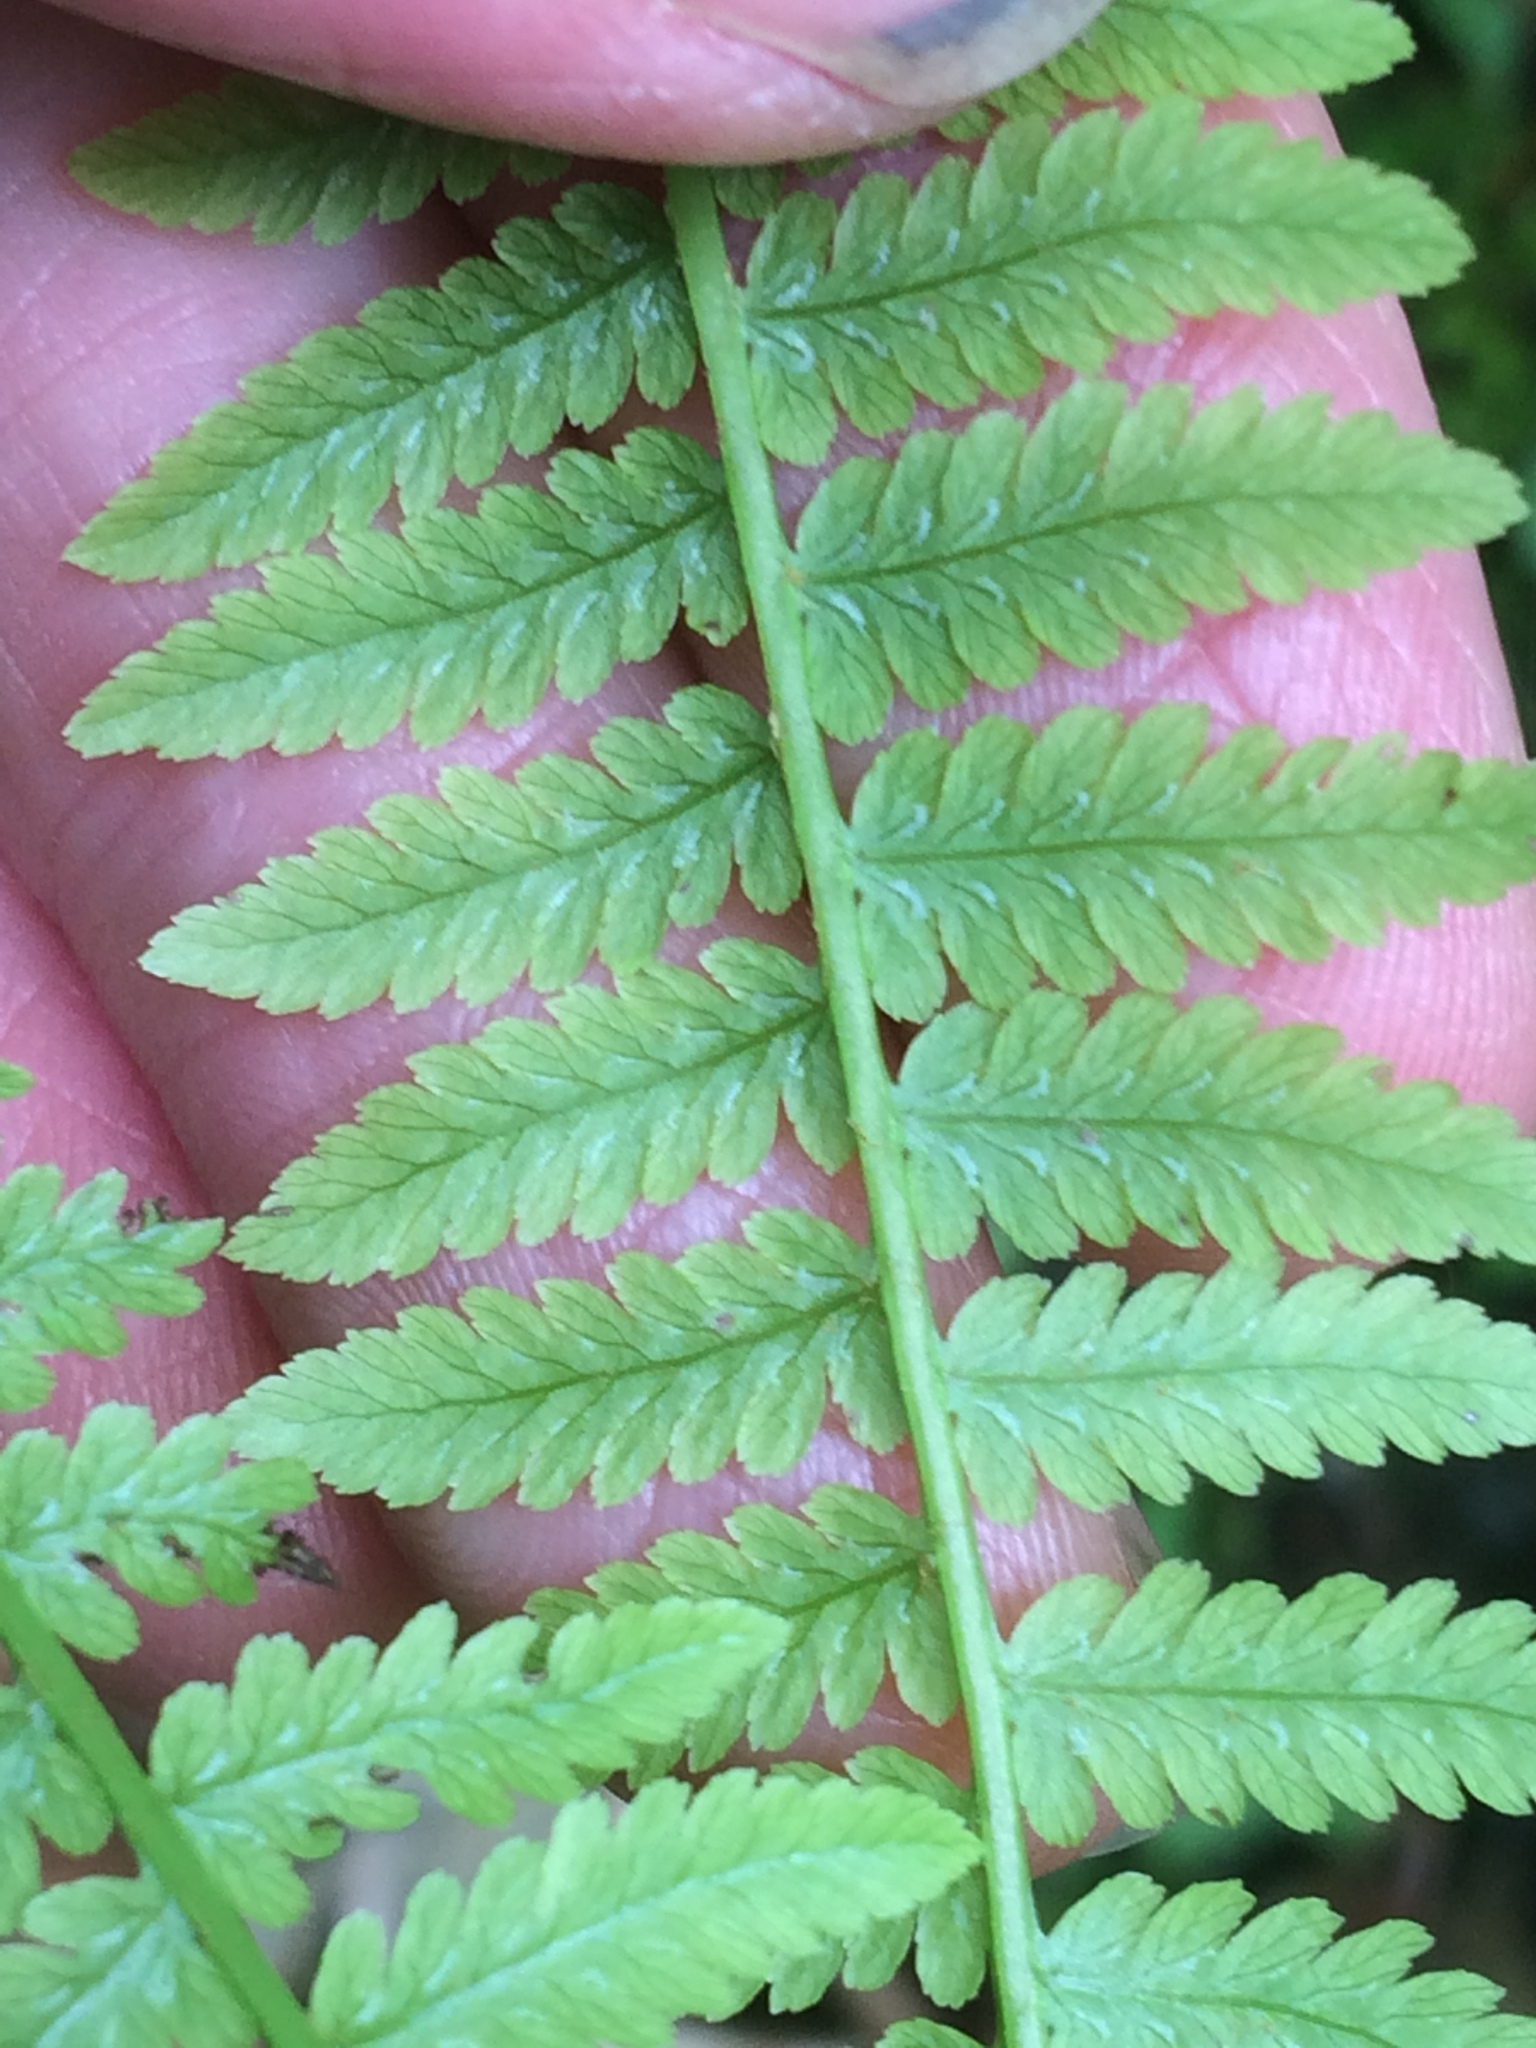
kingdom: Plantae
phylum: Tracheophyta
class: Polypodiopsida
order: Polypodiales
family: Athyriaceae
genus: Athyrium
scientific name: Athyrium angustum
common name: Northern lady fern
